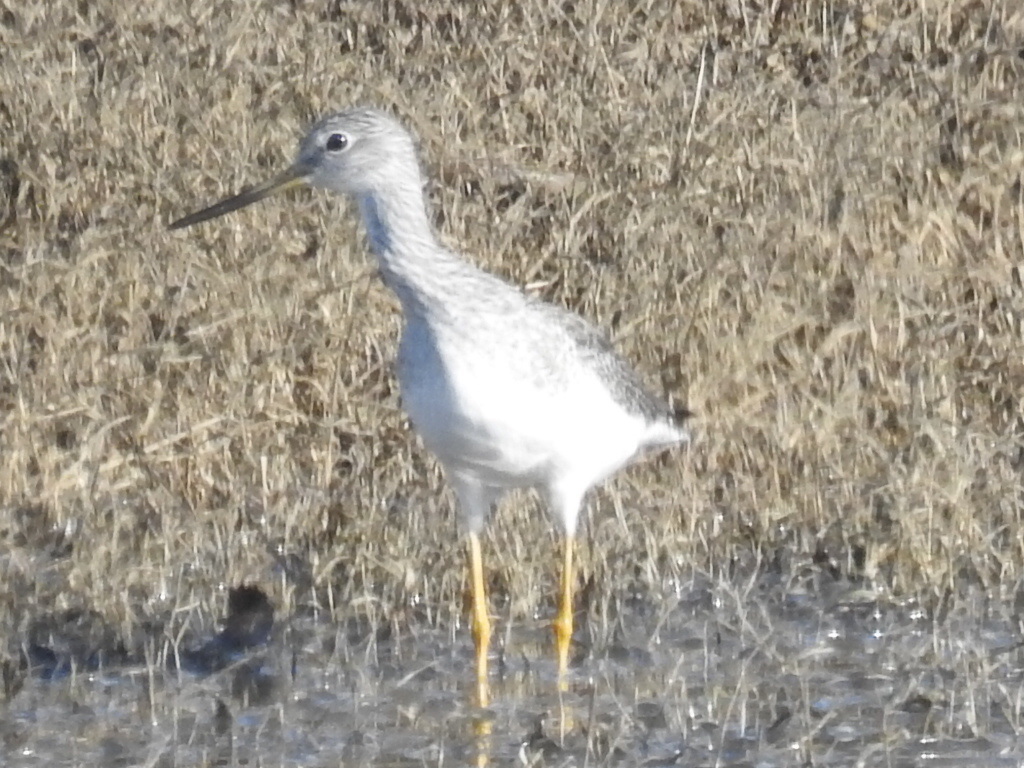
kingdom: Animalia
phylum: Chordata
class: Aves
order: Charadriiformes
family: Scolopacidae
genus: Tringa
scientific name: Tringa melanoleuca
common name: Greater yellowlegs
